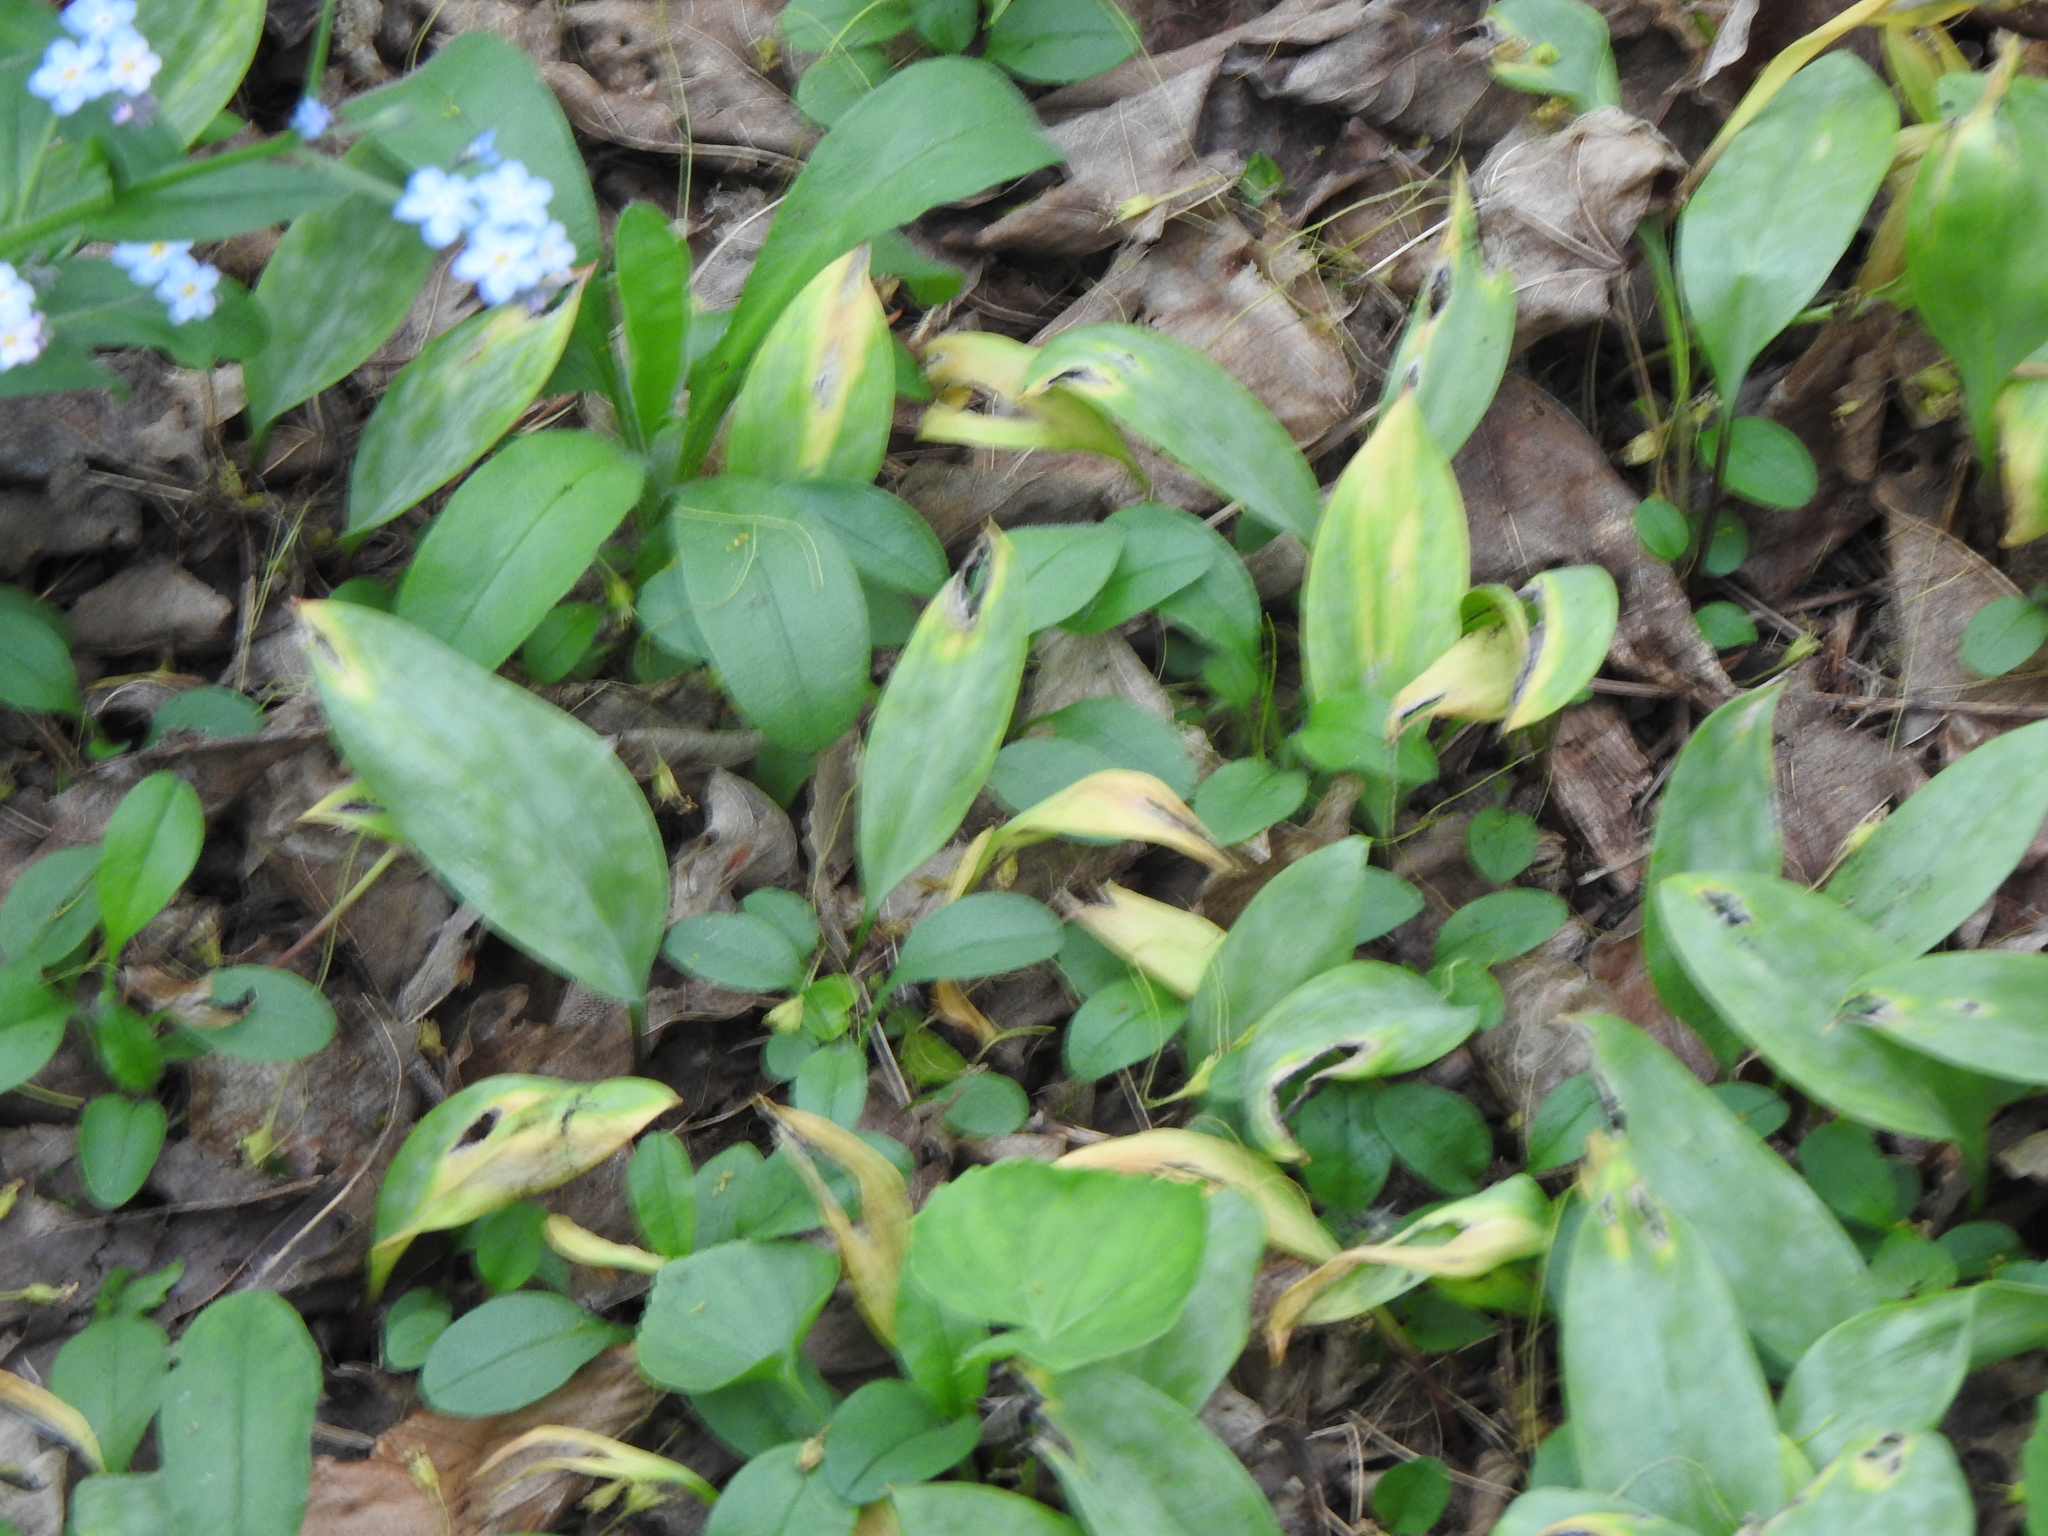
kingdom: Plantae
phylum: Tracheophyta
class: Liliopsida
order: Liliales
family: Liliaceae
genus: Erythronium
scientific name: Erythronium
